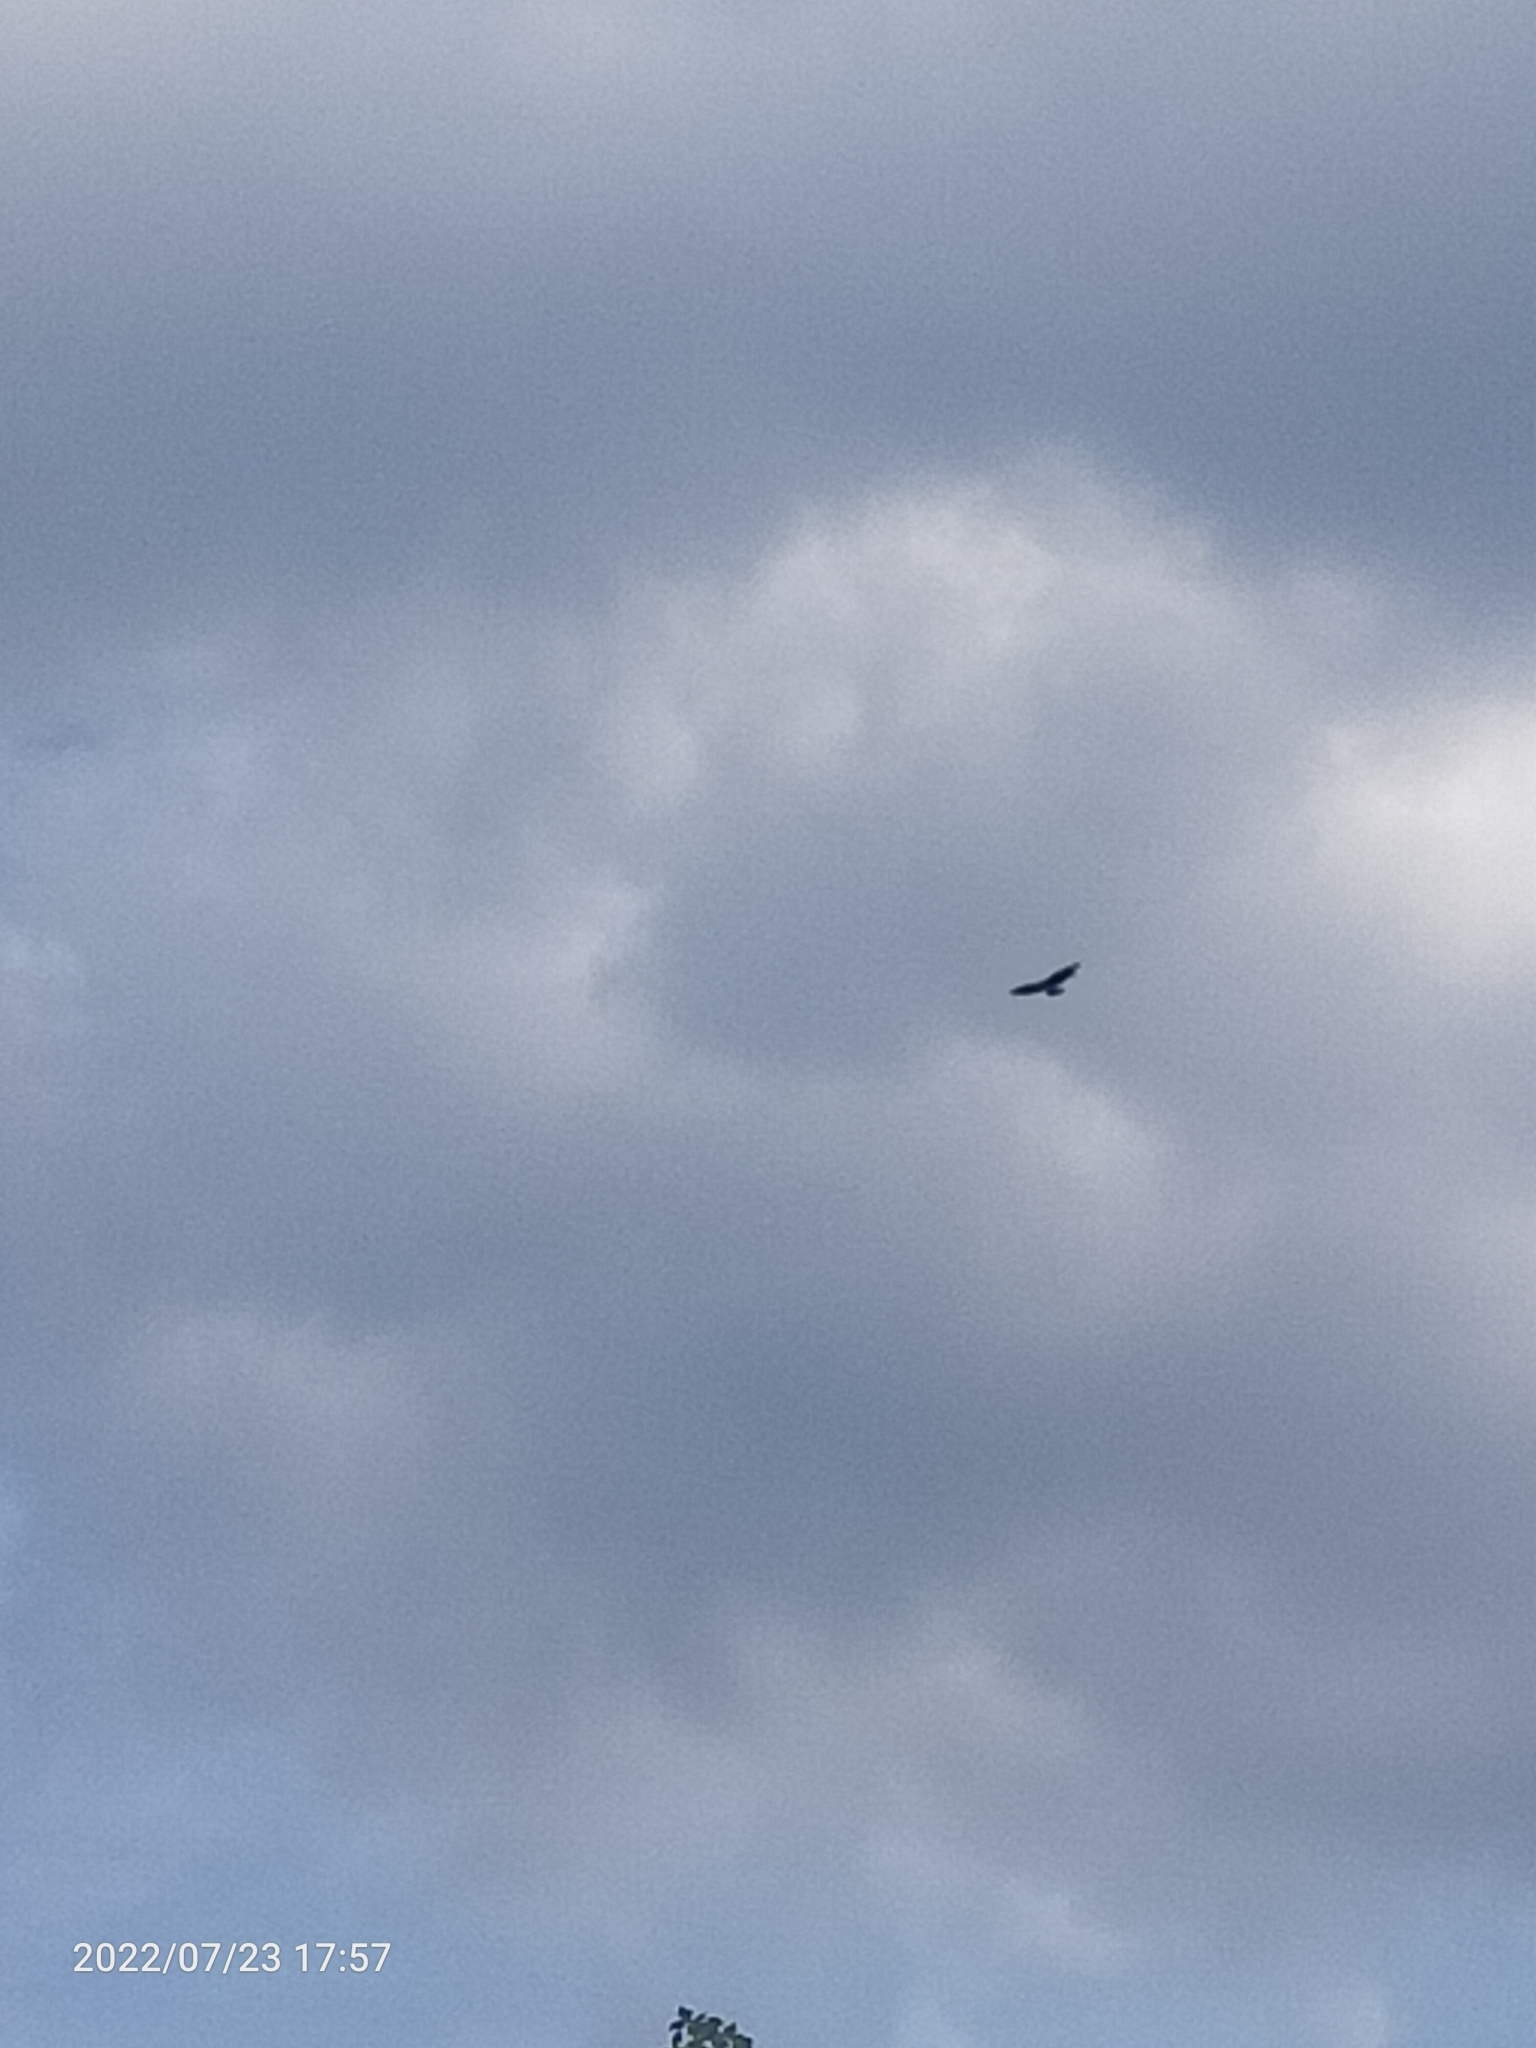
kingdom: Animalia
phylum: Chordata
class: Aves
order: Accipitriformes
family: Accipitridae
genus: Buteo
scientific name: Buteo buteo
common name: Common buzzard
